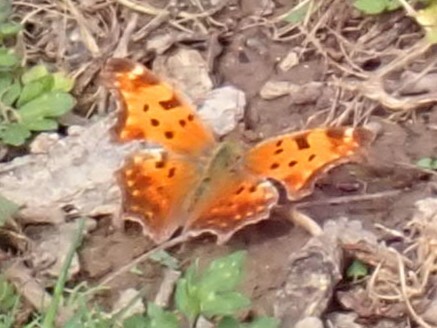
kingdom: Animalia
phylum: Arthropoda
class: Insecta
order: Lepidoptera
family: Nymphalidae
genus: Polygonia
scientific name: Polygonia comma
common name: Eastern comma
